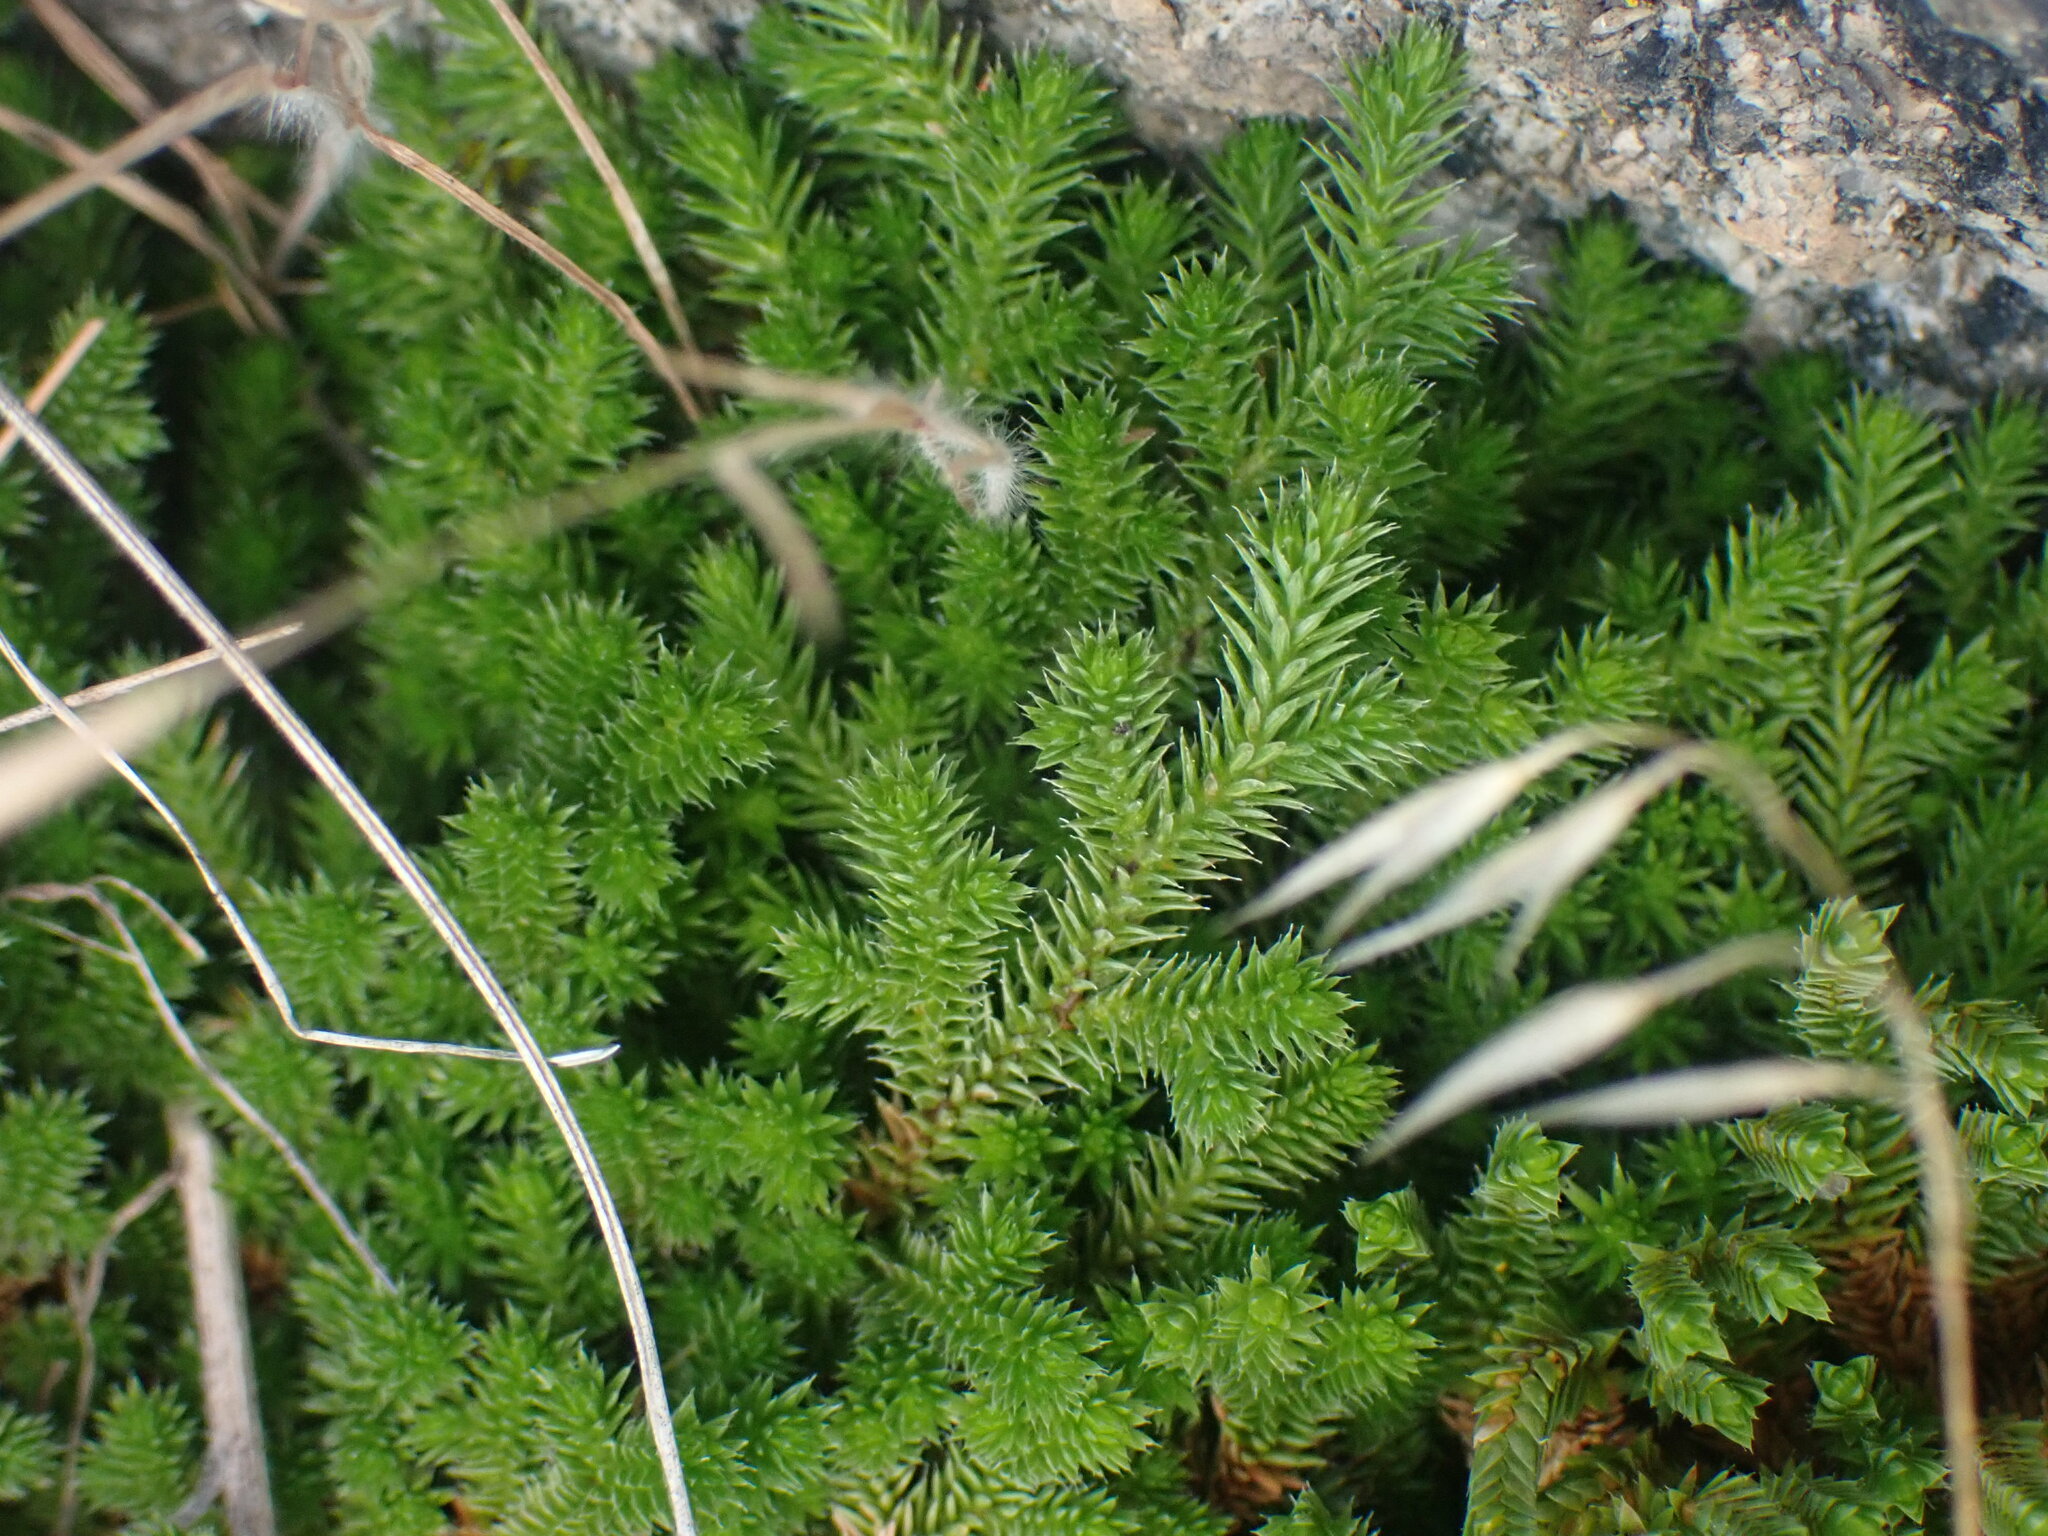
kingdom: Plantae
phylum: Tracheophyta
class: Lycopodiopsida
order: Selaginellales
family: Selaginellaceae
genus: Selaginella
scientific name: Selaginella wallacei
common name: Wallace's selaginella
